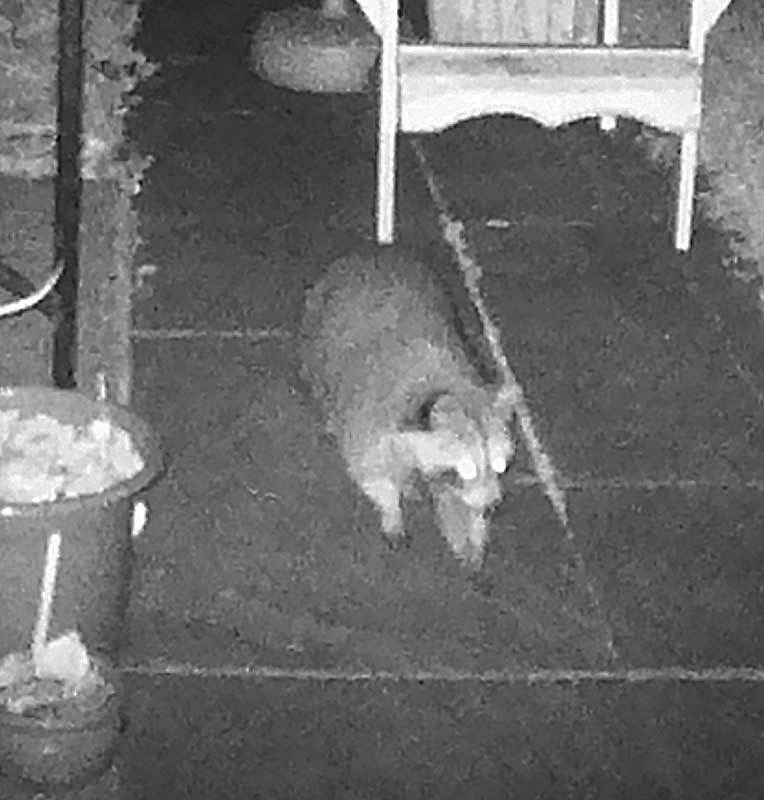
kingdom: Animalia
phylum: Chordata
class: Mammalia
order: Carnivora
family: Procyonidae
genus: Procyon
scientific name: Procyon lotor
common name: Raccoon
